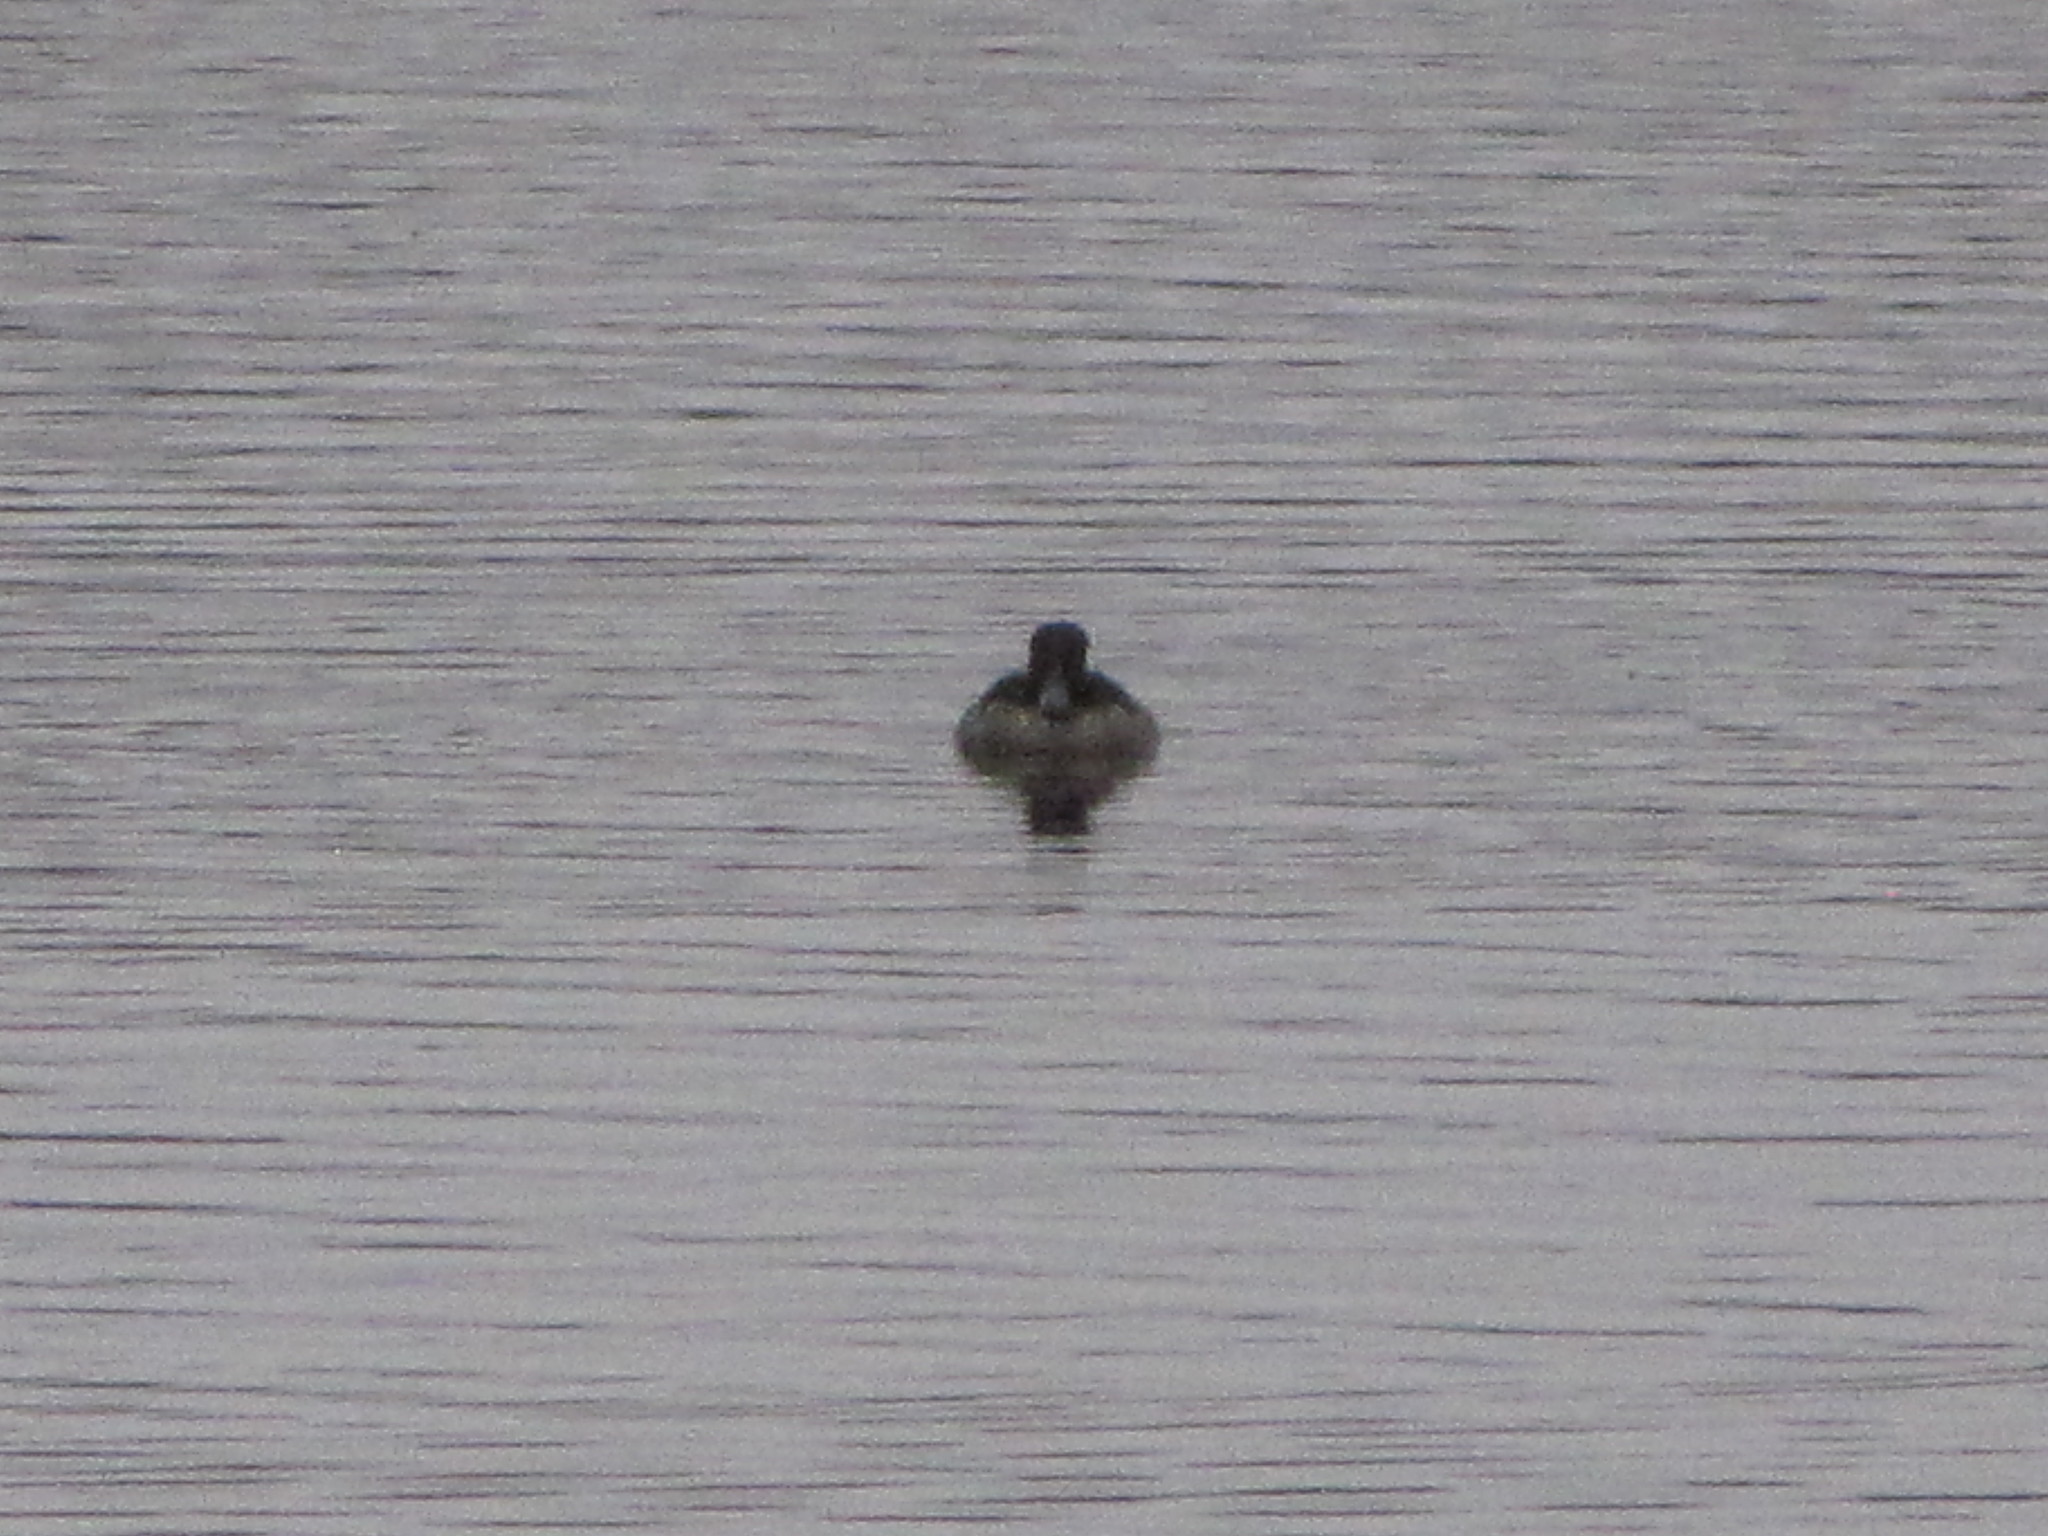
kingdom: Animalia
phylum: Chordata
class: Aves
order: Anseriformes
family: Anatidae
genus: Bucephala
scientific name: Bucephala albeola
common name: Bufflehead
